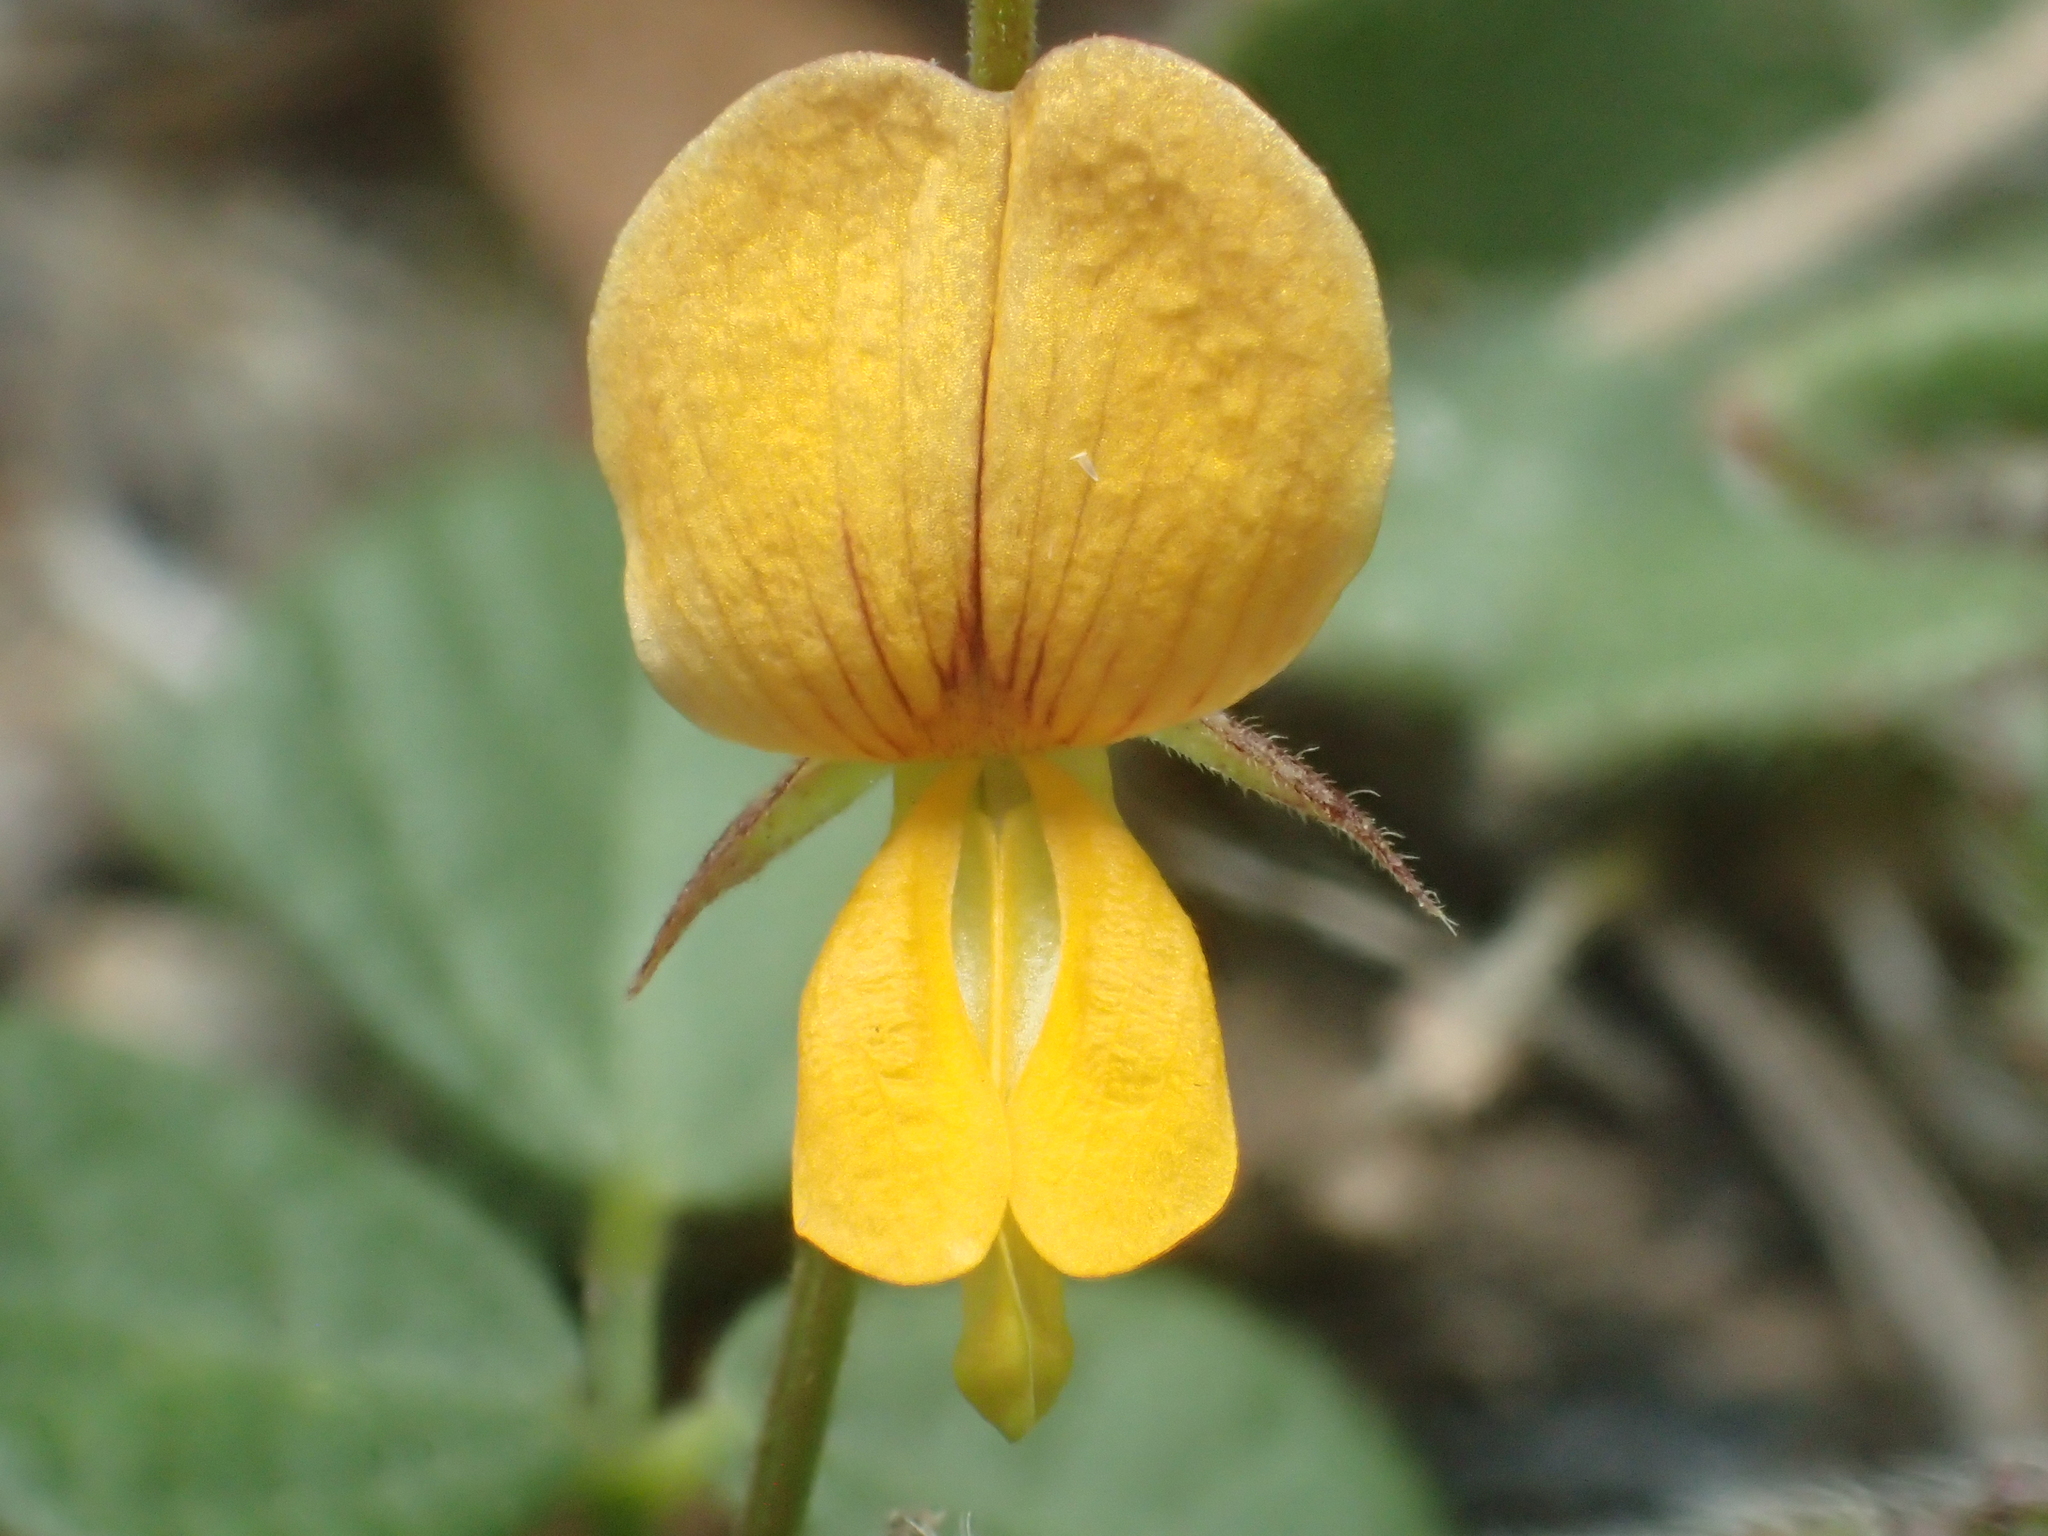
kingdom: Plantae
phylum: Tracheophyta
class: Magnoliopsida
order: Fabales
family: Fabaceae
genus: Rhynchosia
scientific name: Rhynchosia minima
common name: Least snoutbean
